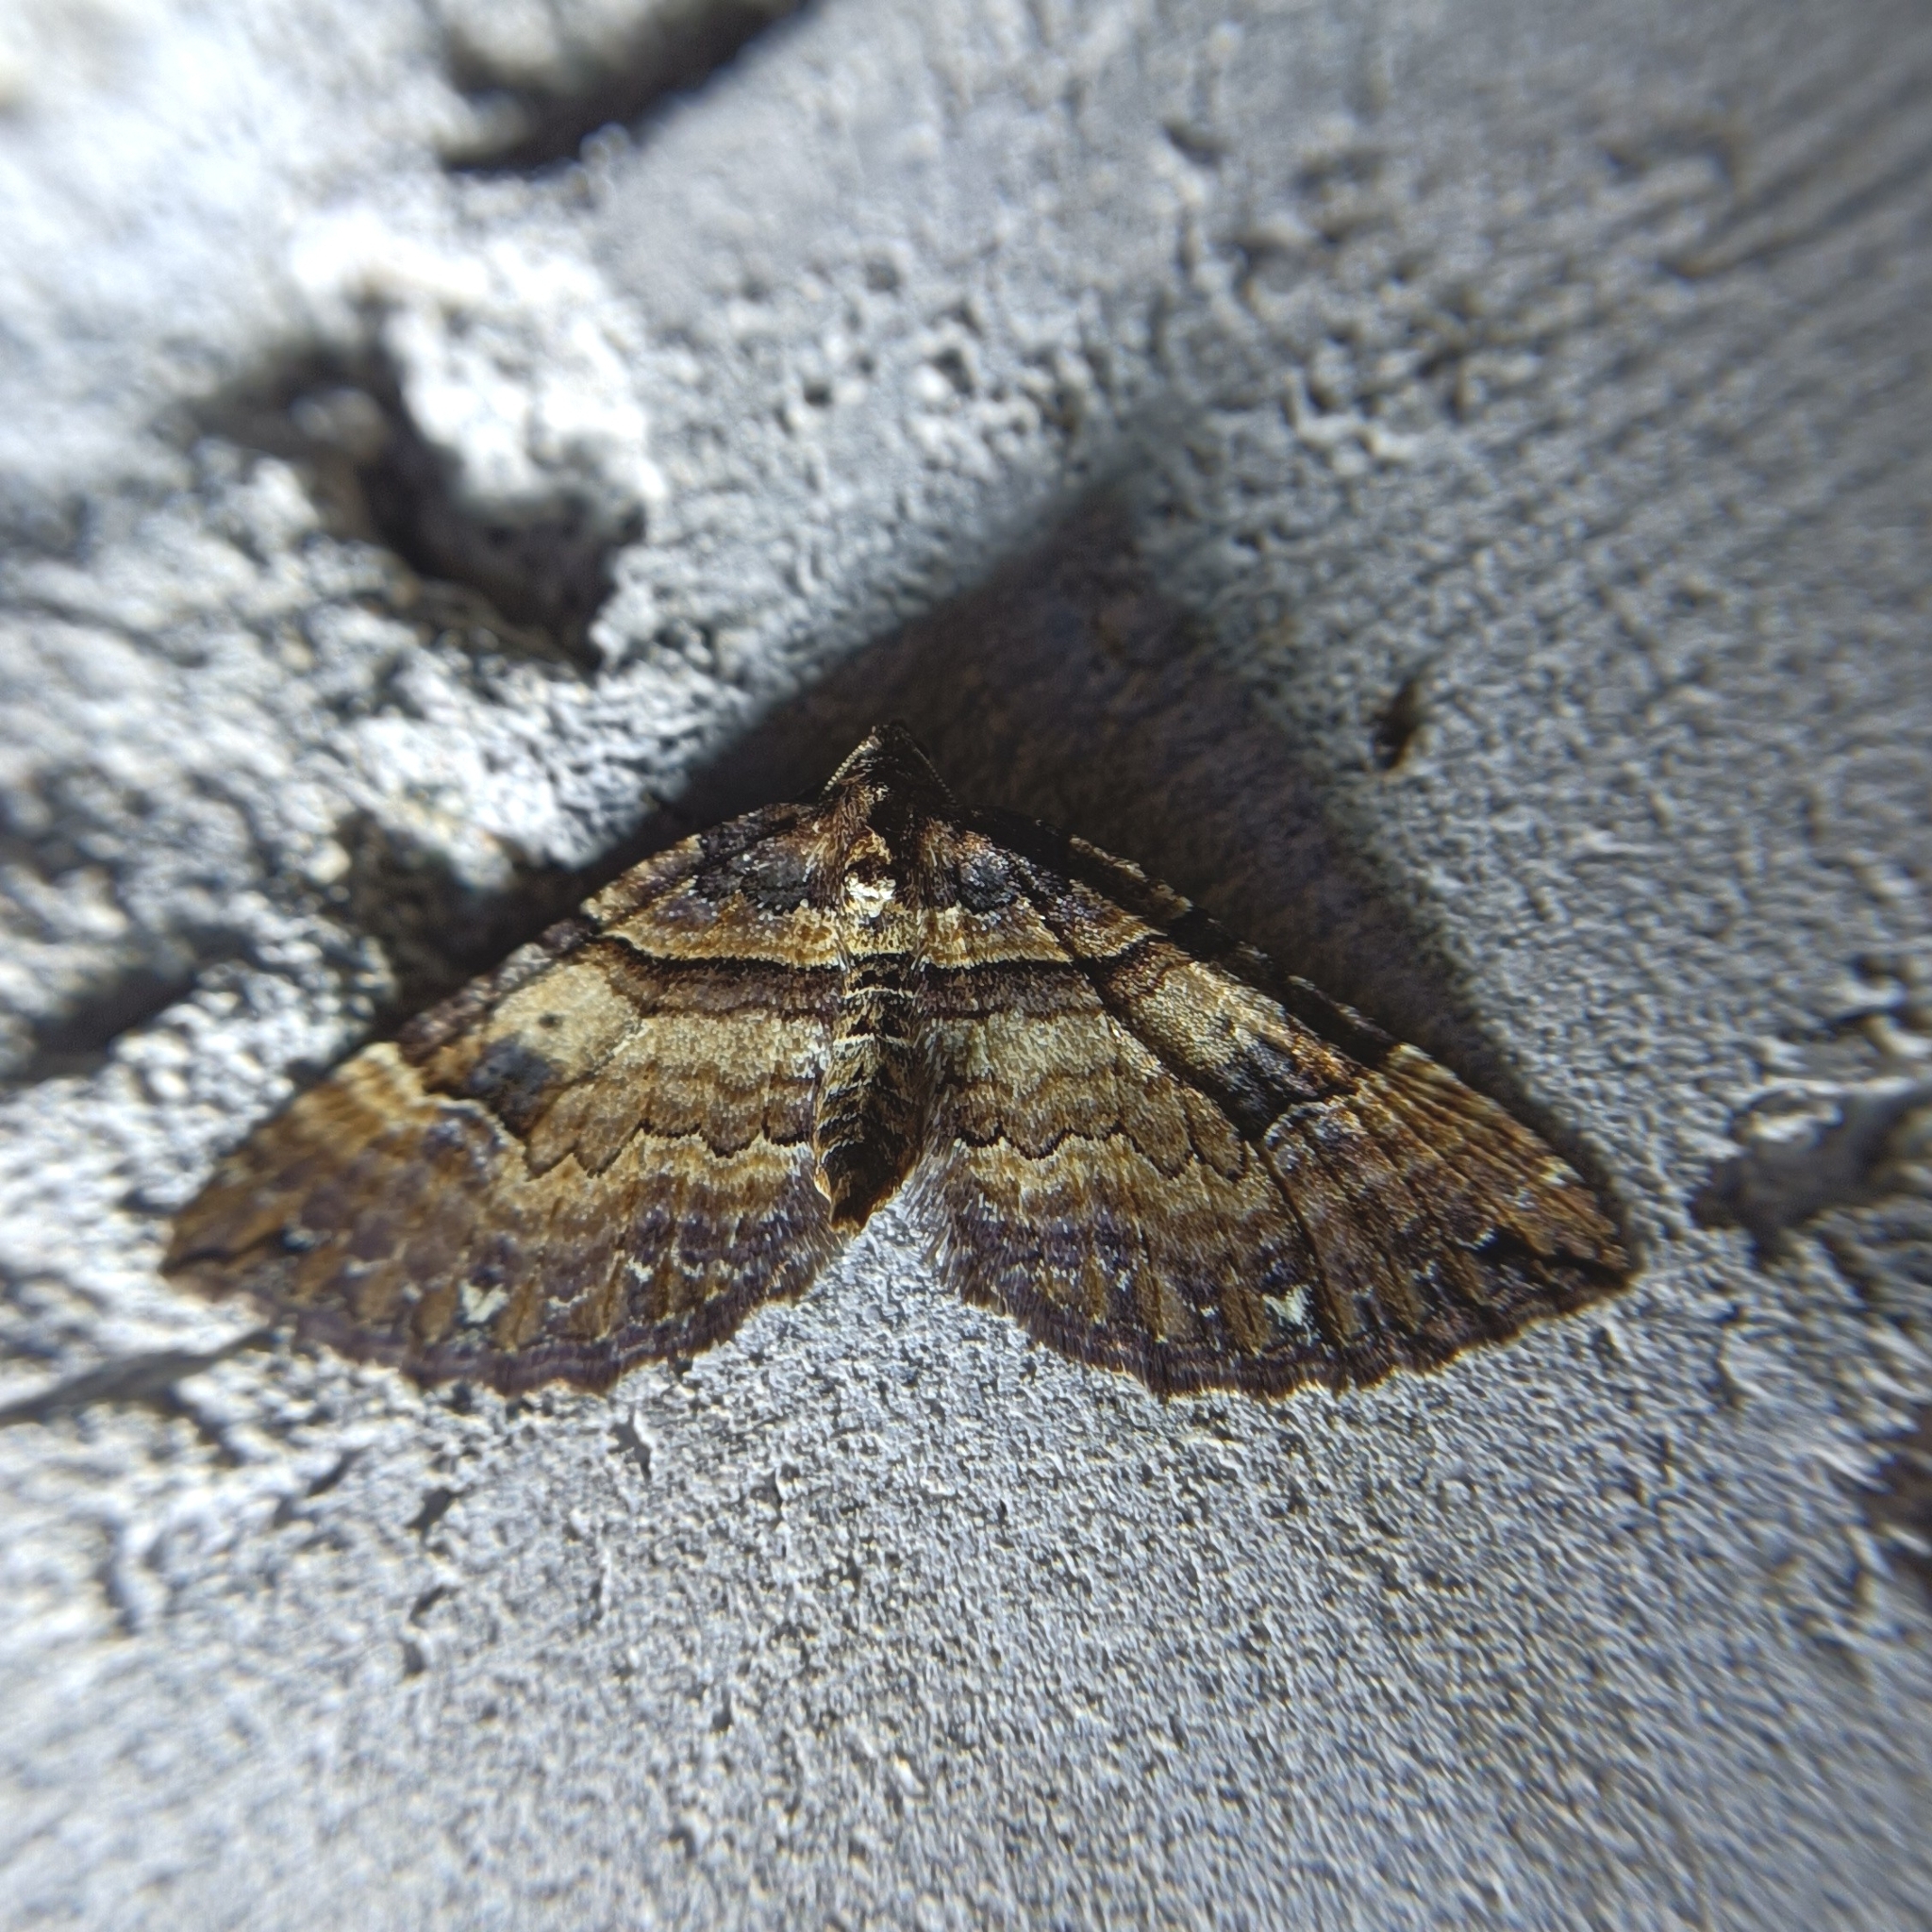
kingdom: Animalia
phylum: Arthropoda
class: Insecta
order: Lepidoptera
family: Geometridae
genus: Anticlea
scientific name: Anticlea badiata
